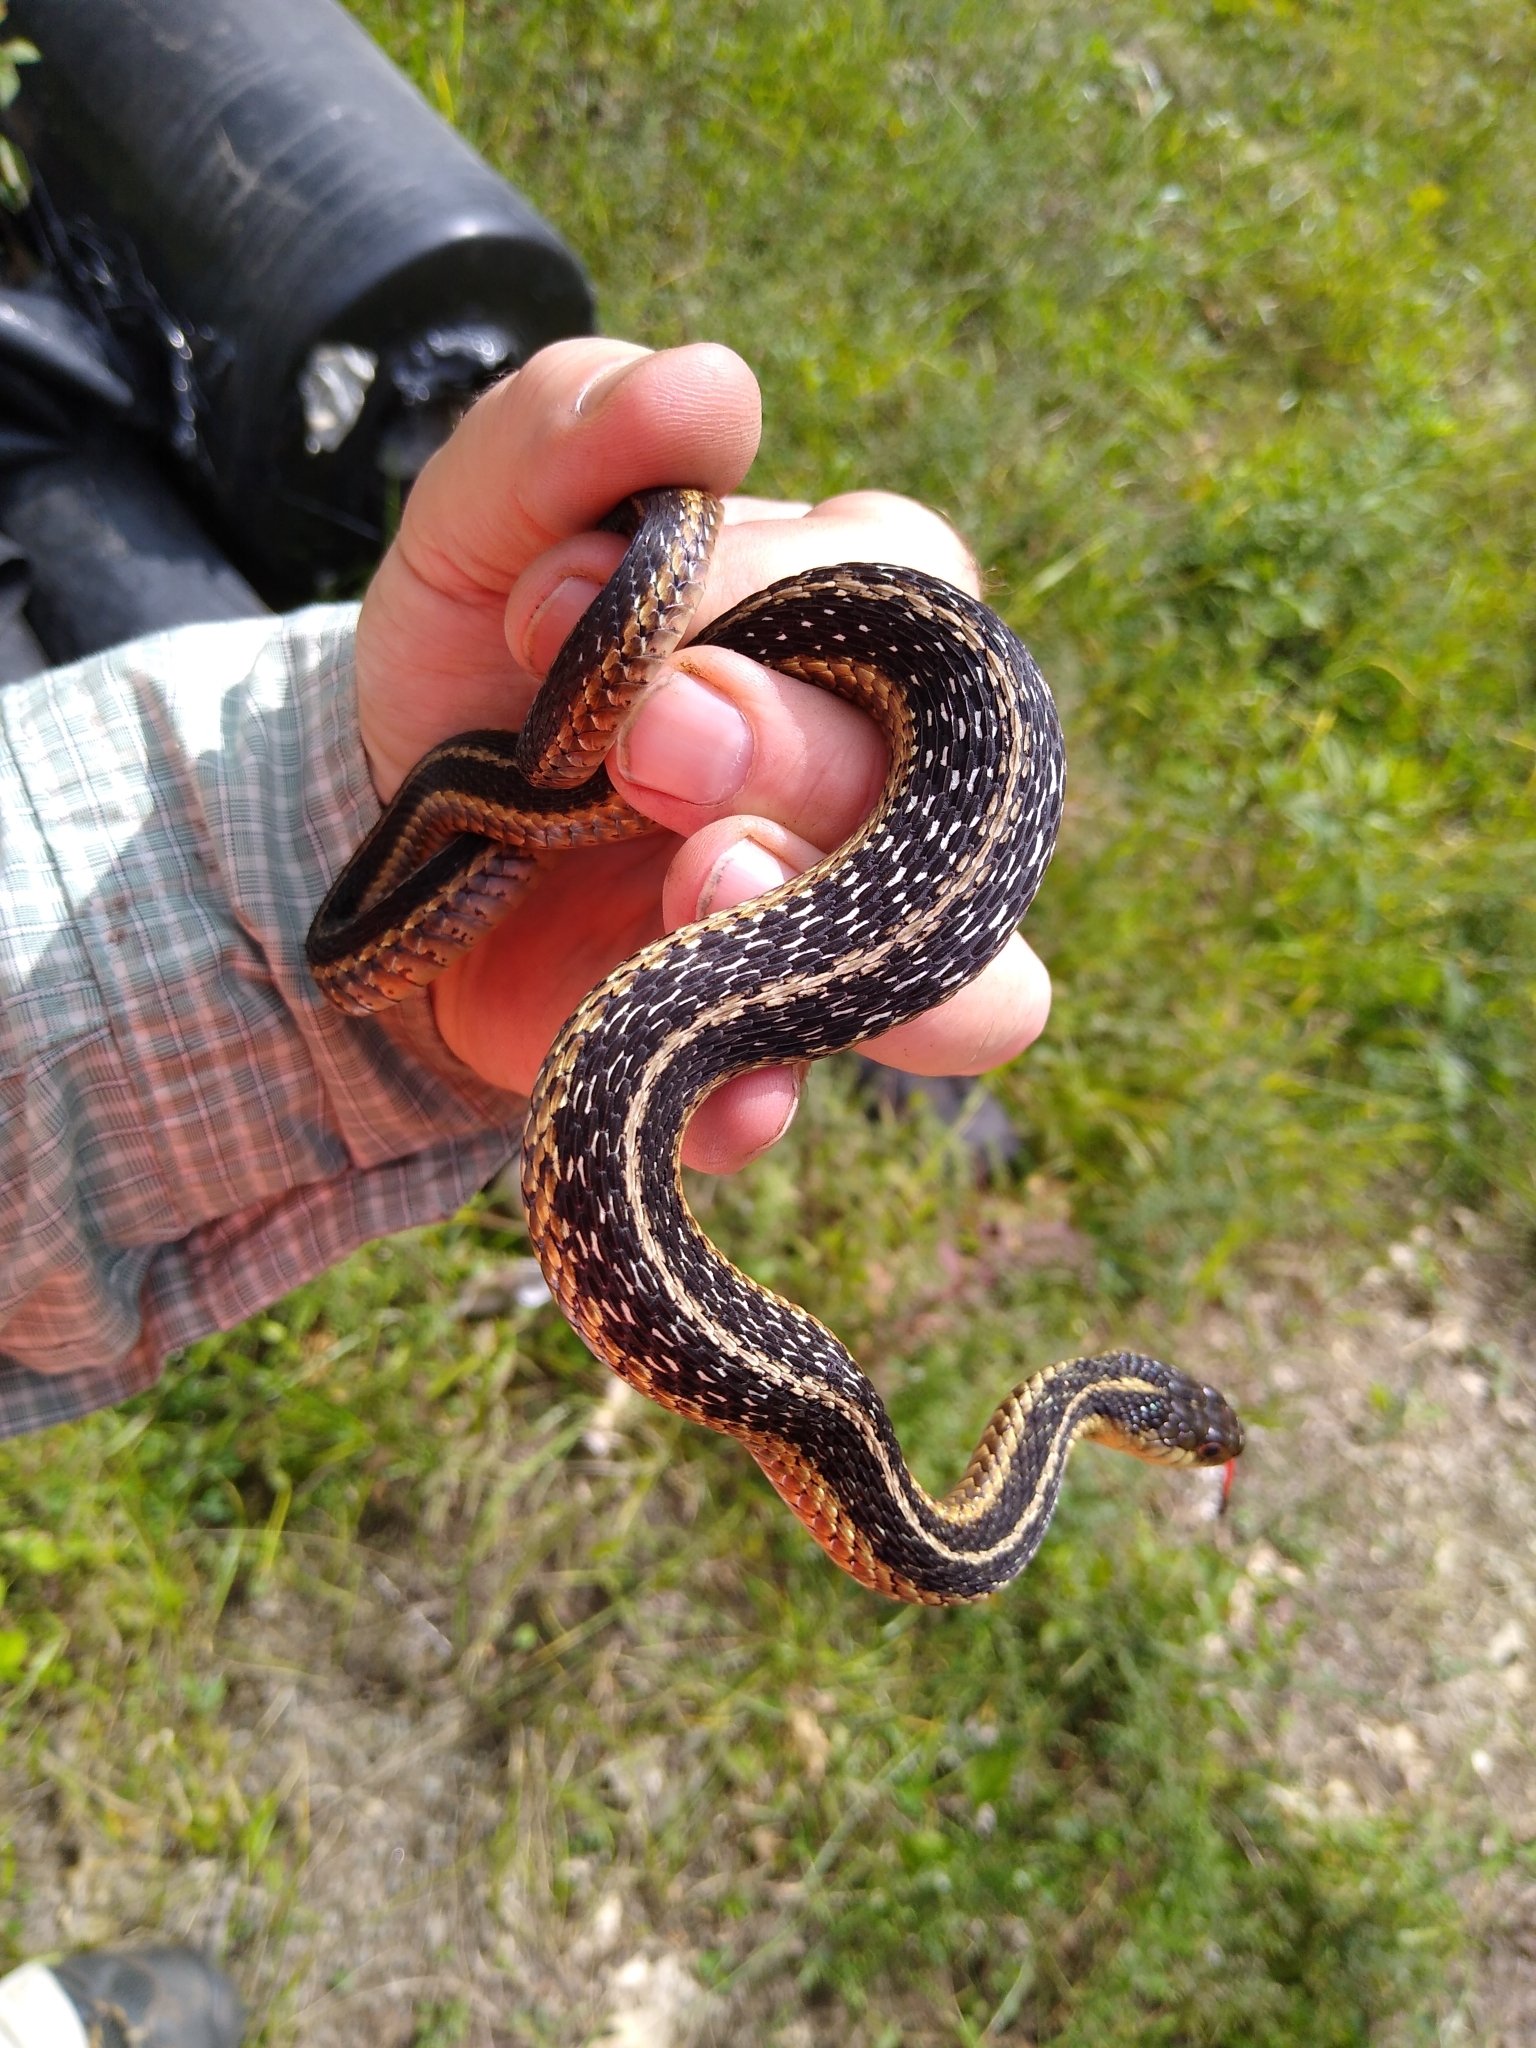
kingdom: Animalia
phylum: Chordata
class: Squamata
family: Colubridae
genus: Thamnophis
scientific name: Thamnophis sirtalis
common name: Common garter snake
